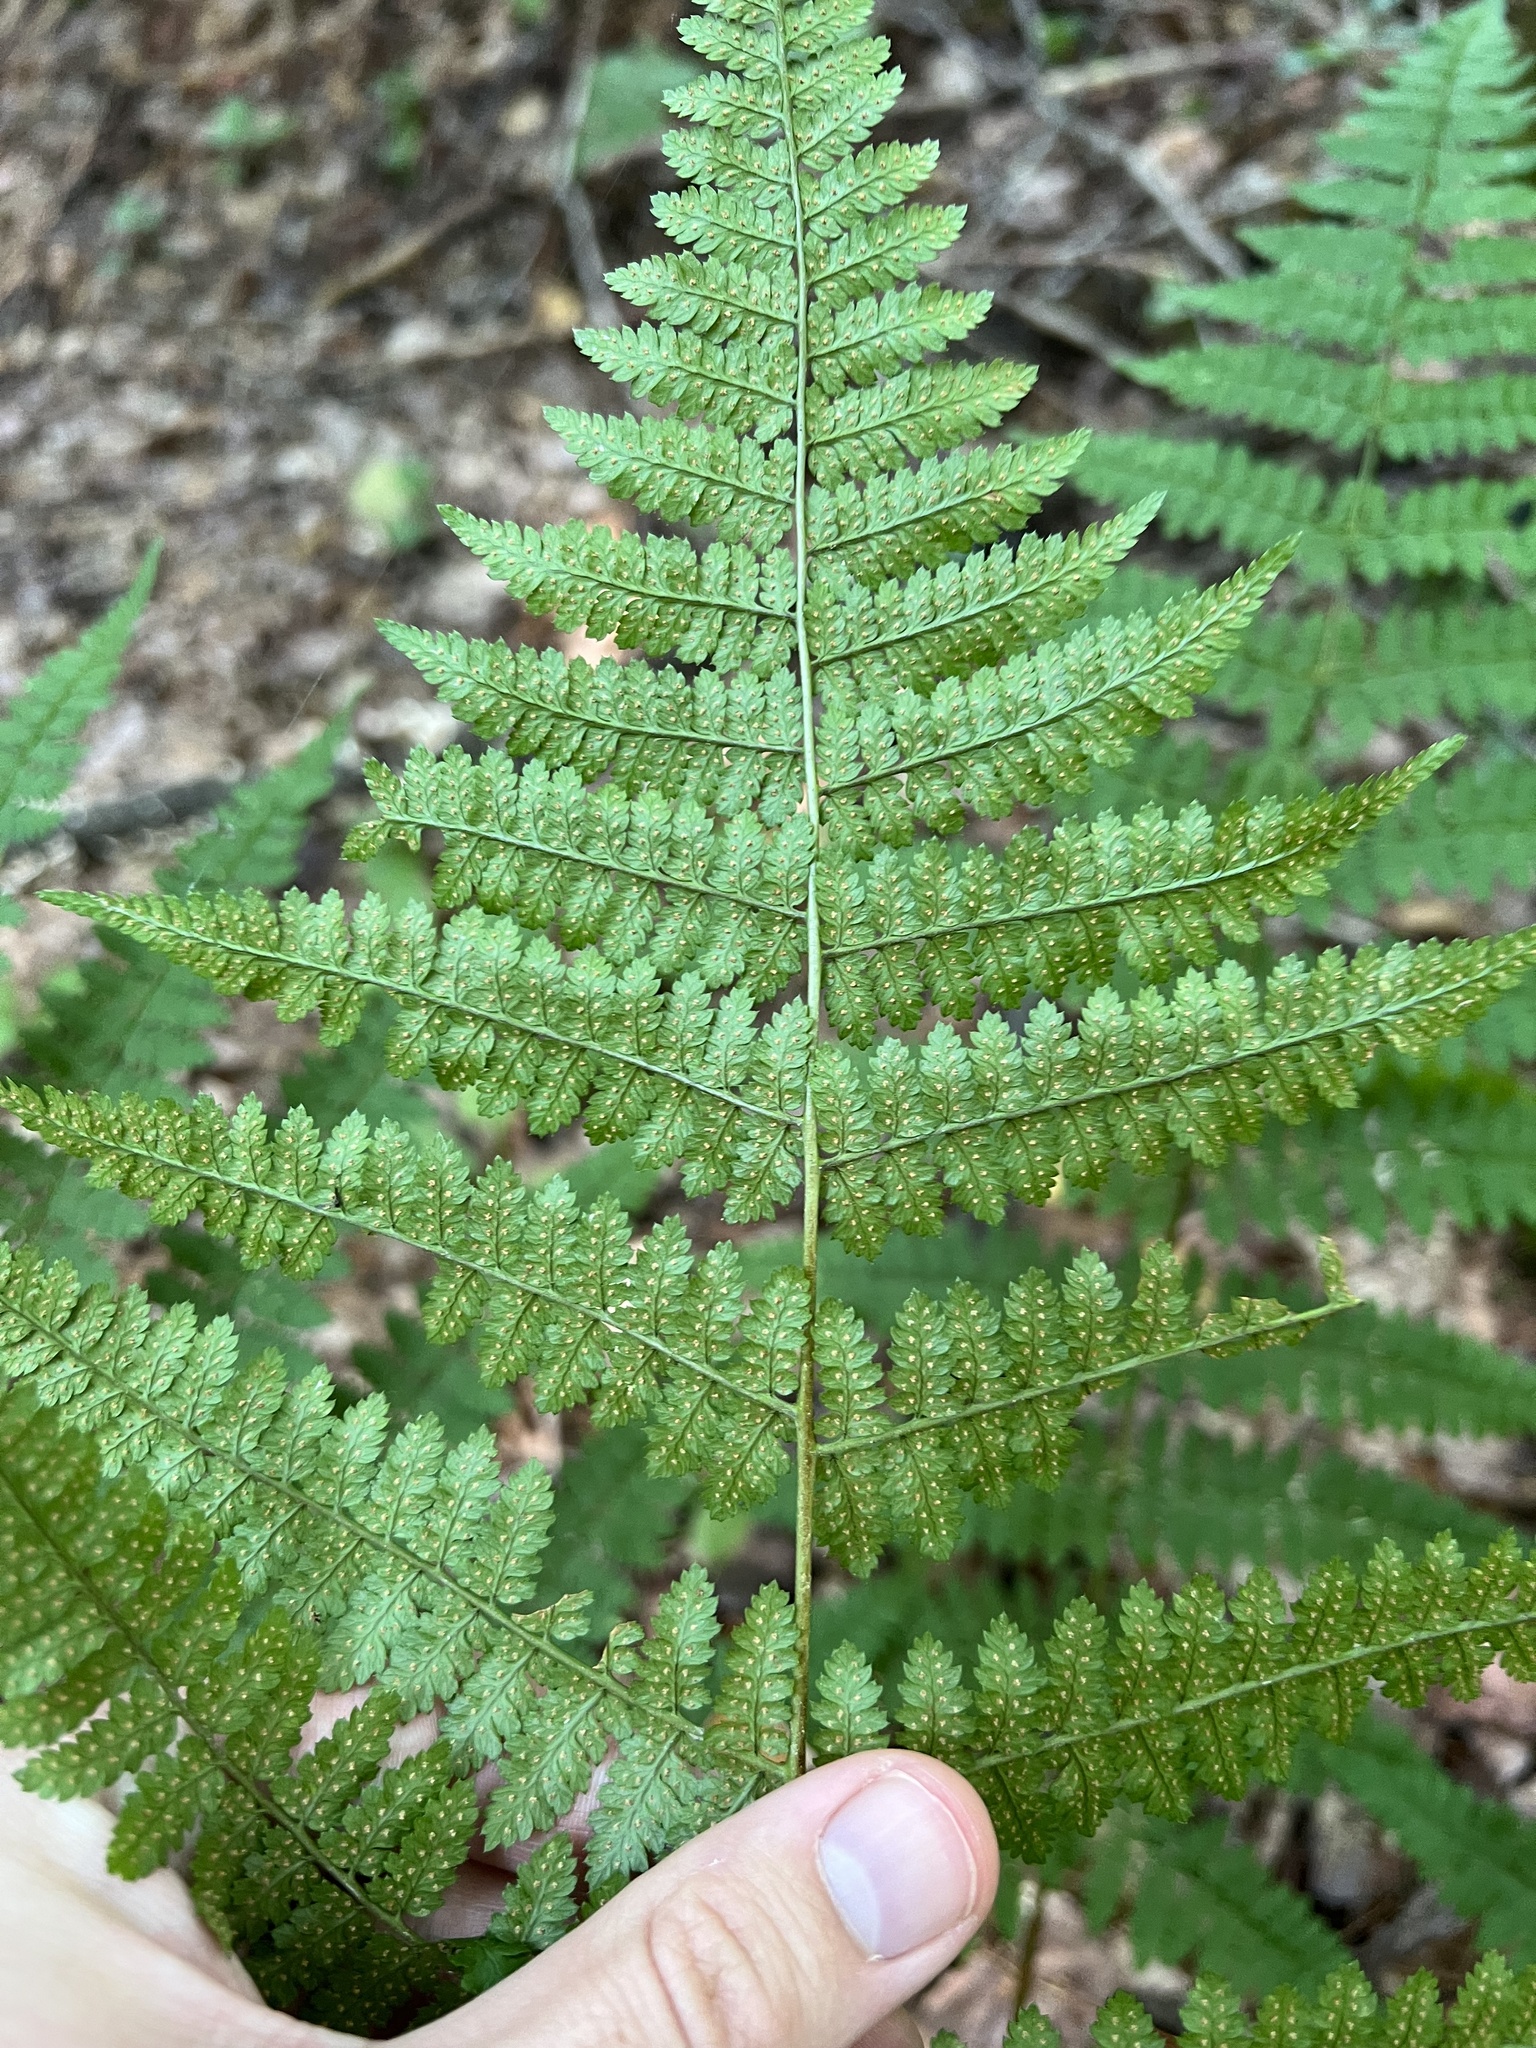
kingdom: Plantae
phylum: Tracheophyta
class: Polypodiopsida
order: Polypodiales
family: Dryopteridaceae
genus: Dryopteris
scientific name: Dryopteris intermedia
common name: Evergreen wood fern
